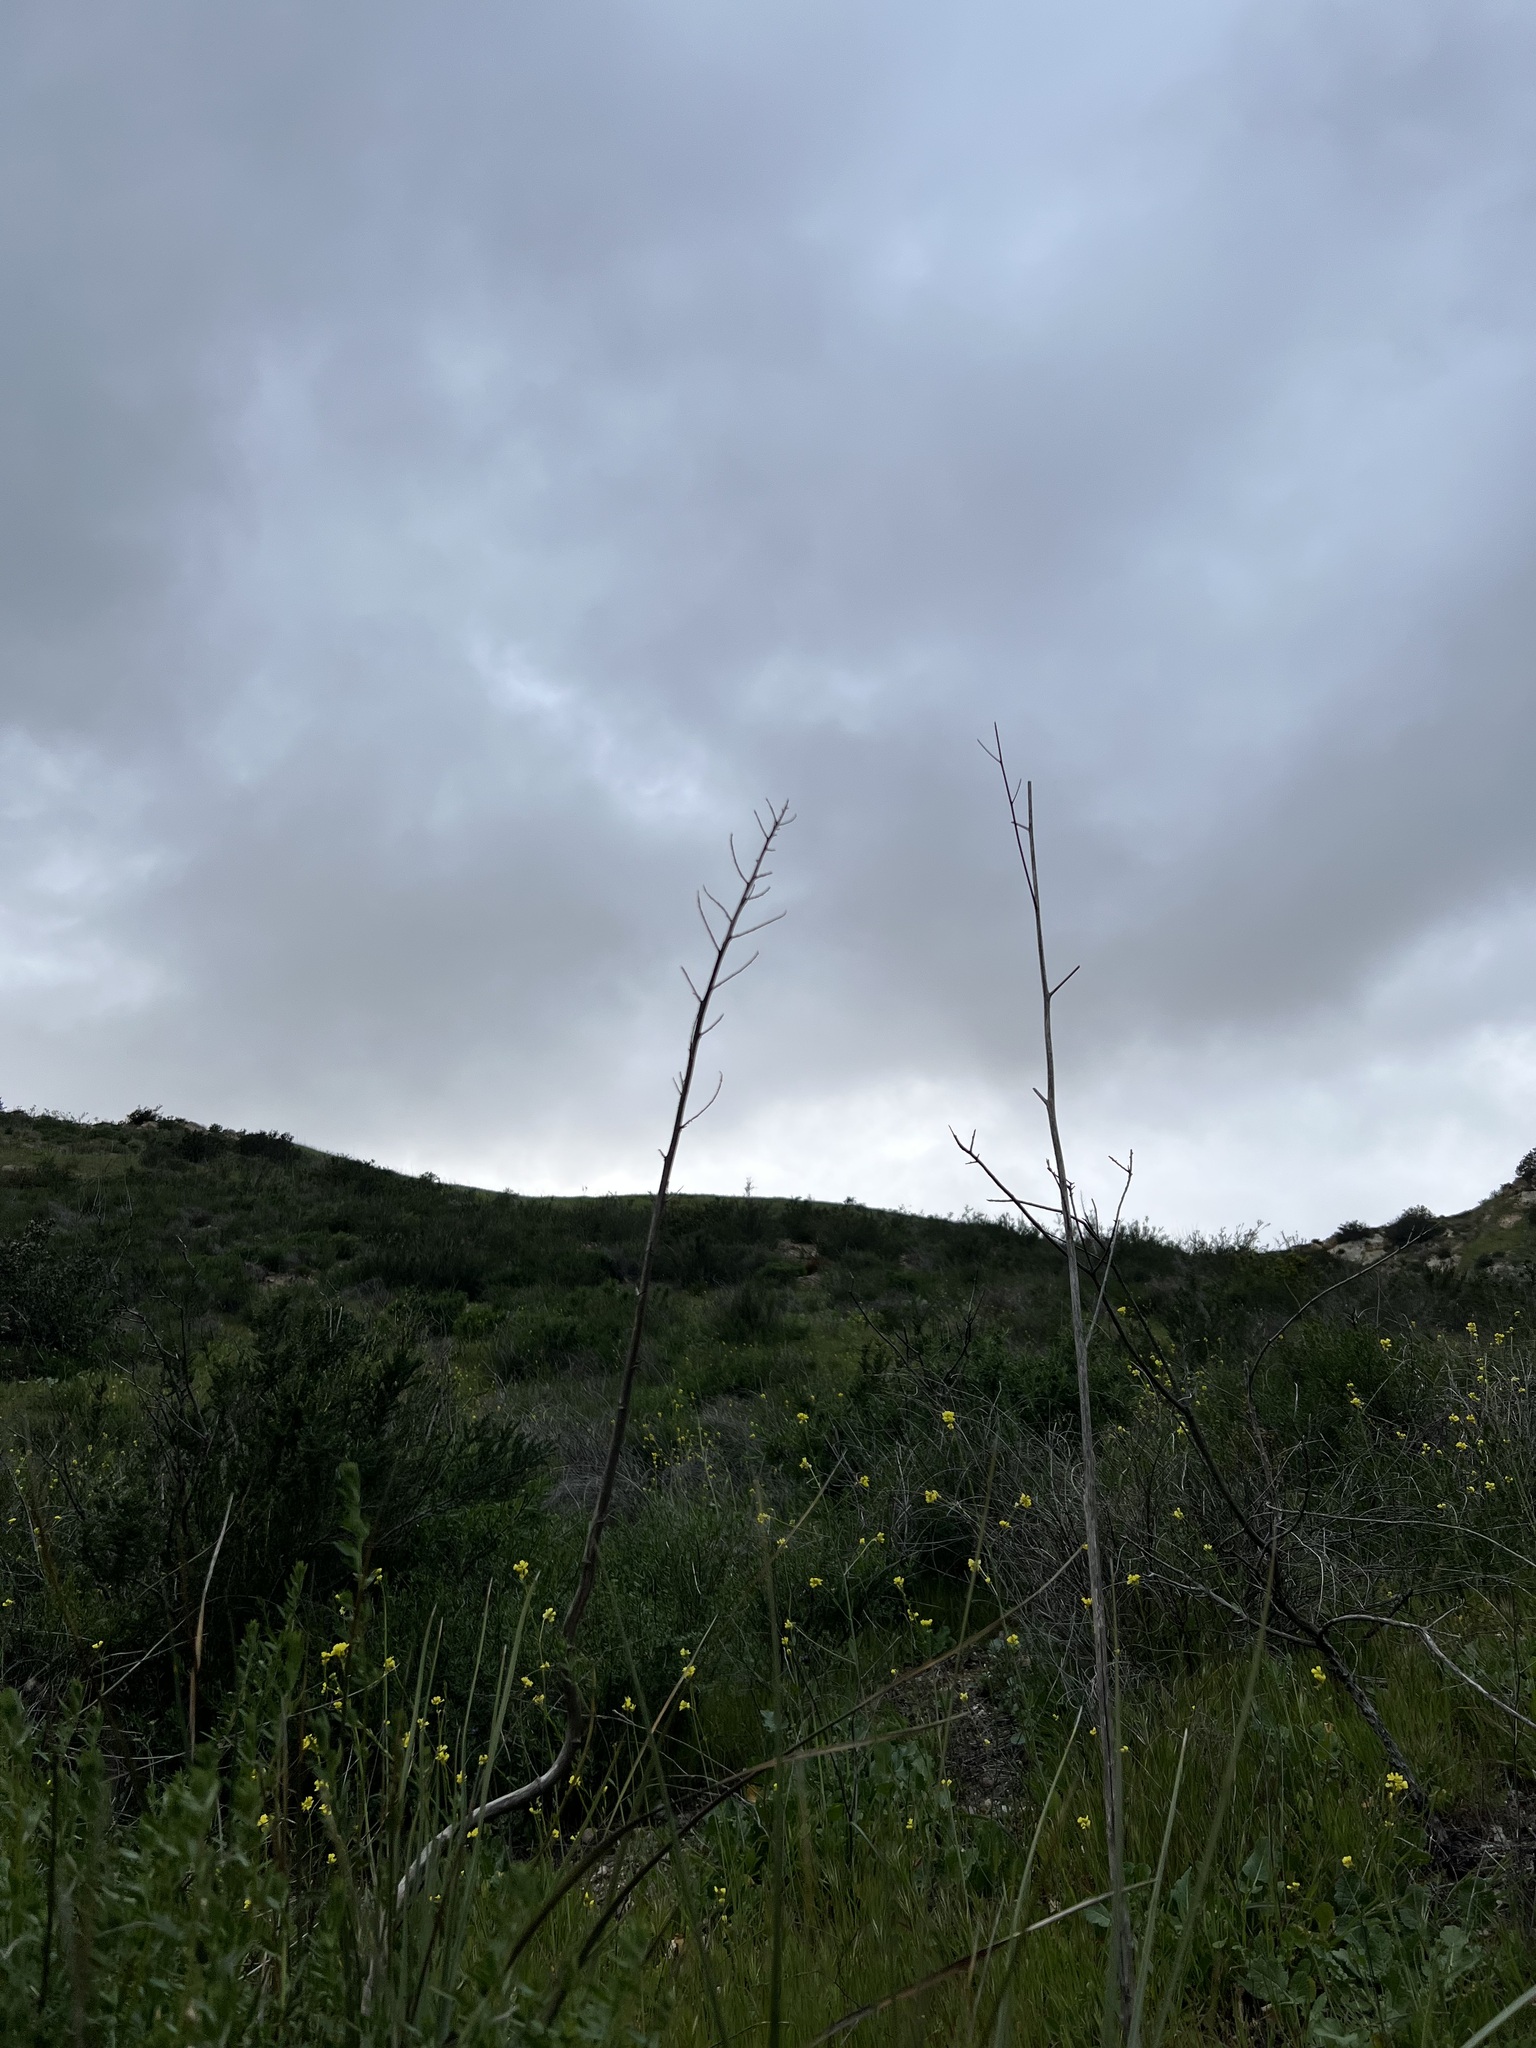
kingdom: Plantae
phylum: Tracheophyta
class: Liliopsida
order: Asparagales
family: Asparagaceae
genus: Nolina
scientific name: Nolina cismontana
